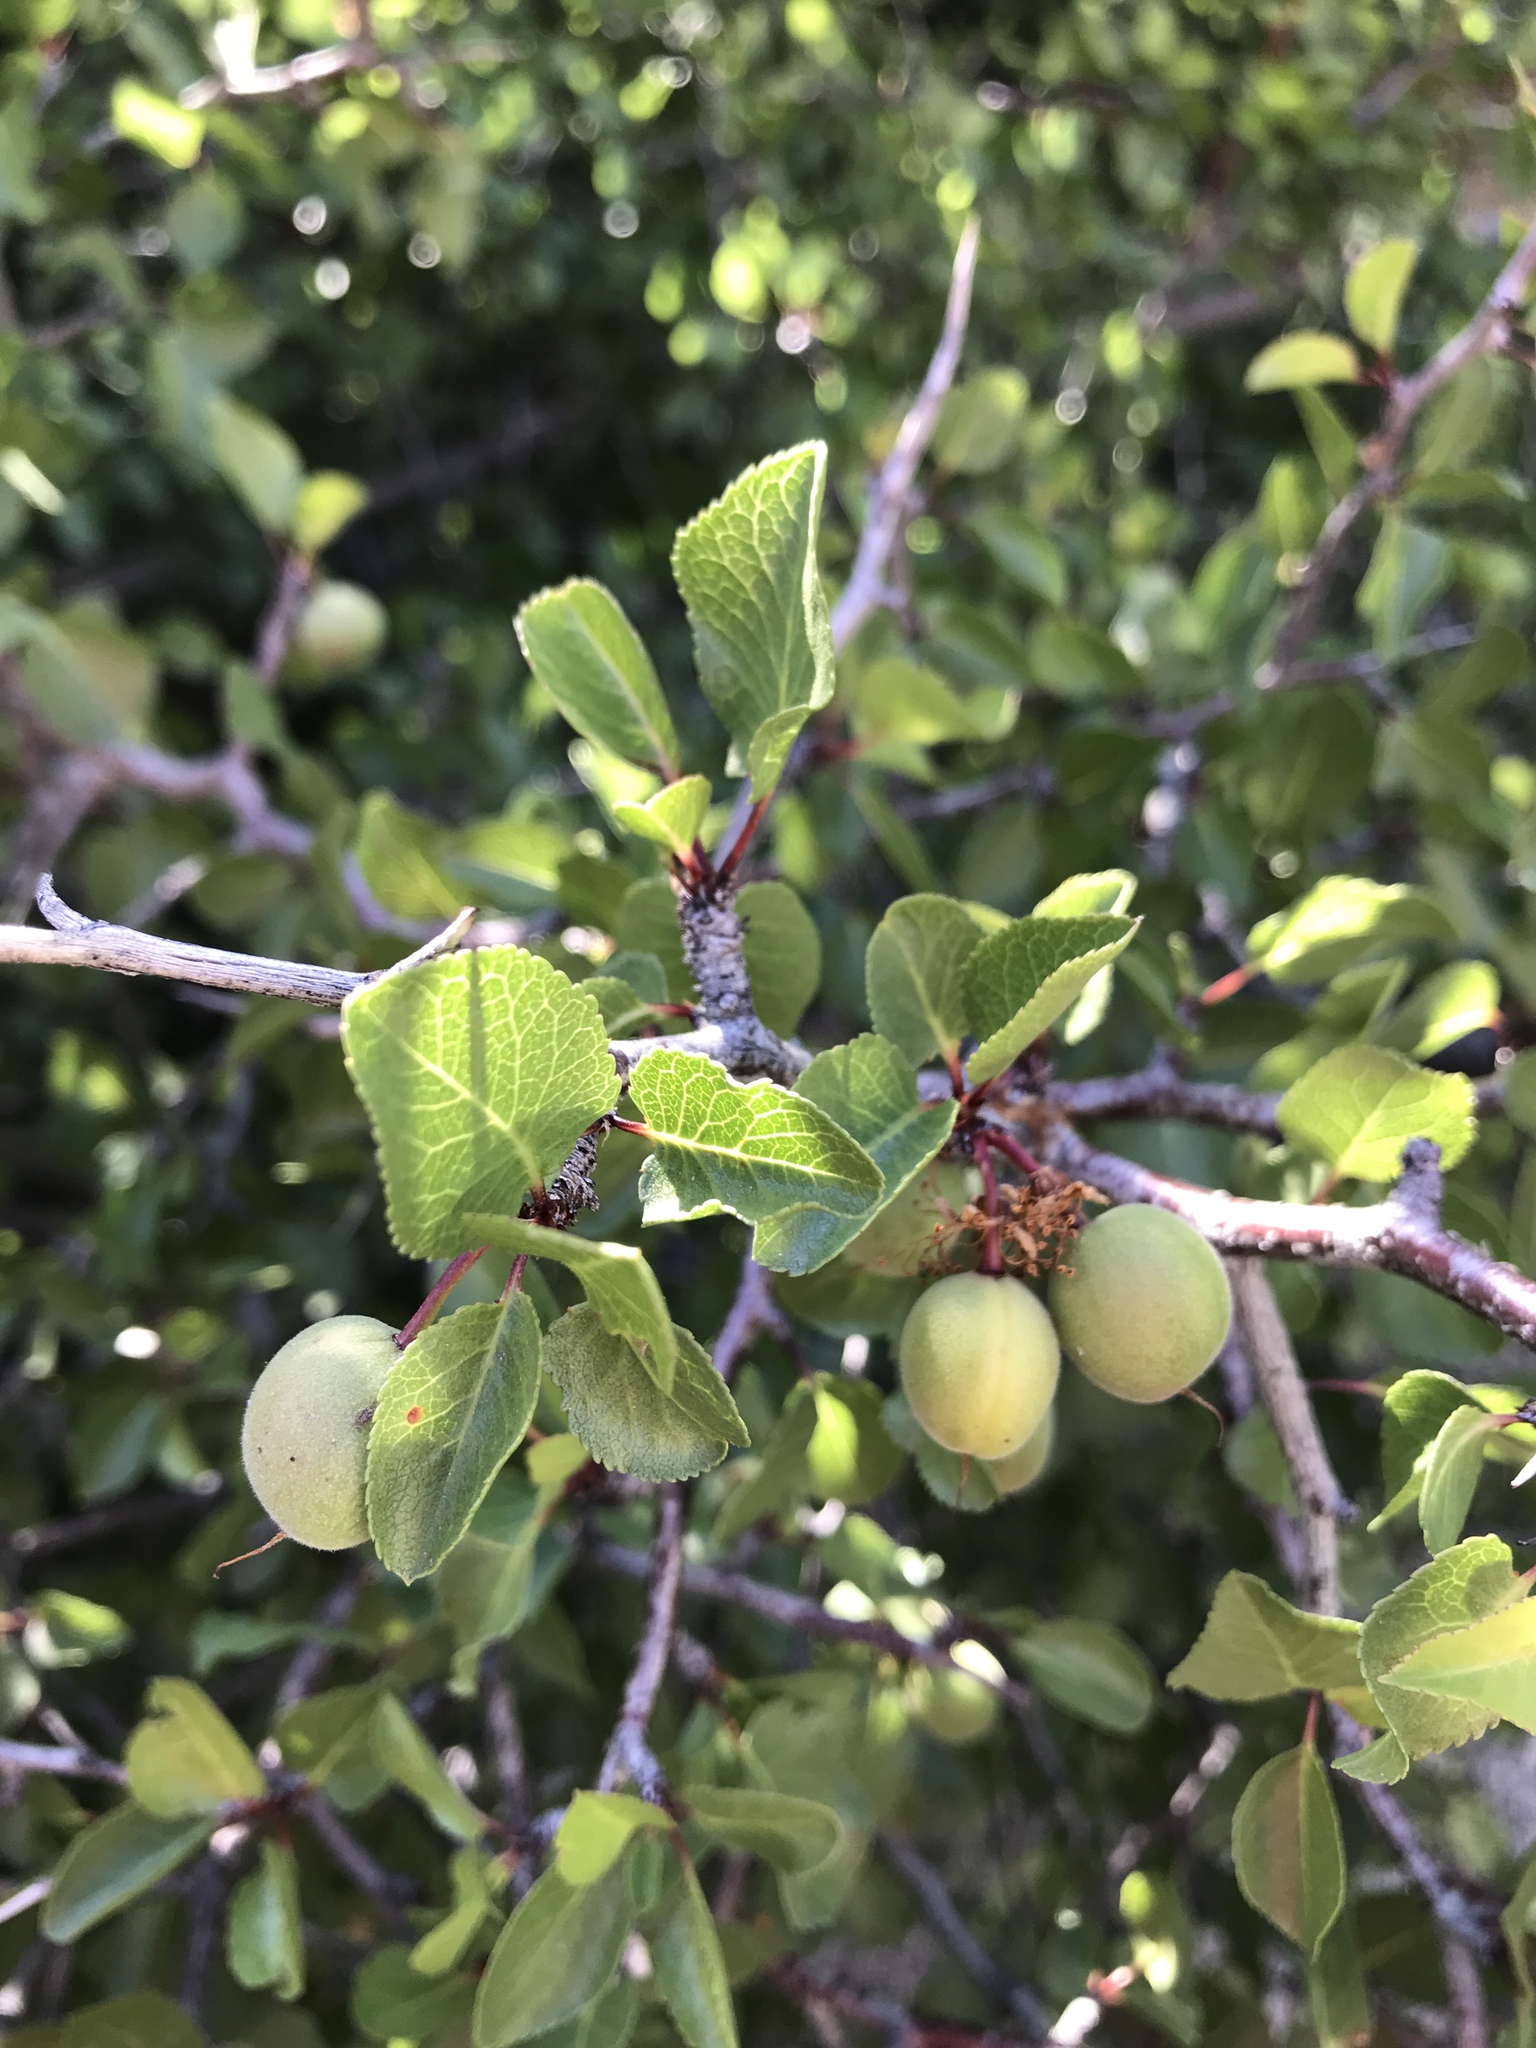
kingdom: Plantae
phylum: Tracheophyta
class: Magnoliopsida
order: Rosales
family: Rosaceae
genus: Prunus
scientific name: Prunus fremontii
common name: Desert apricot
